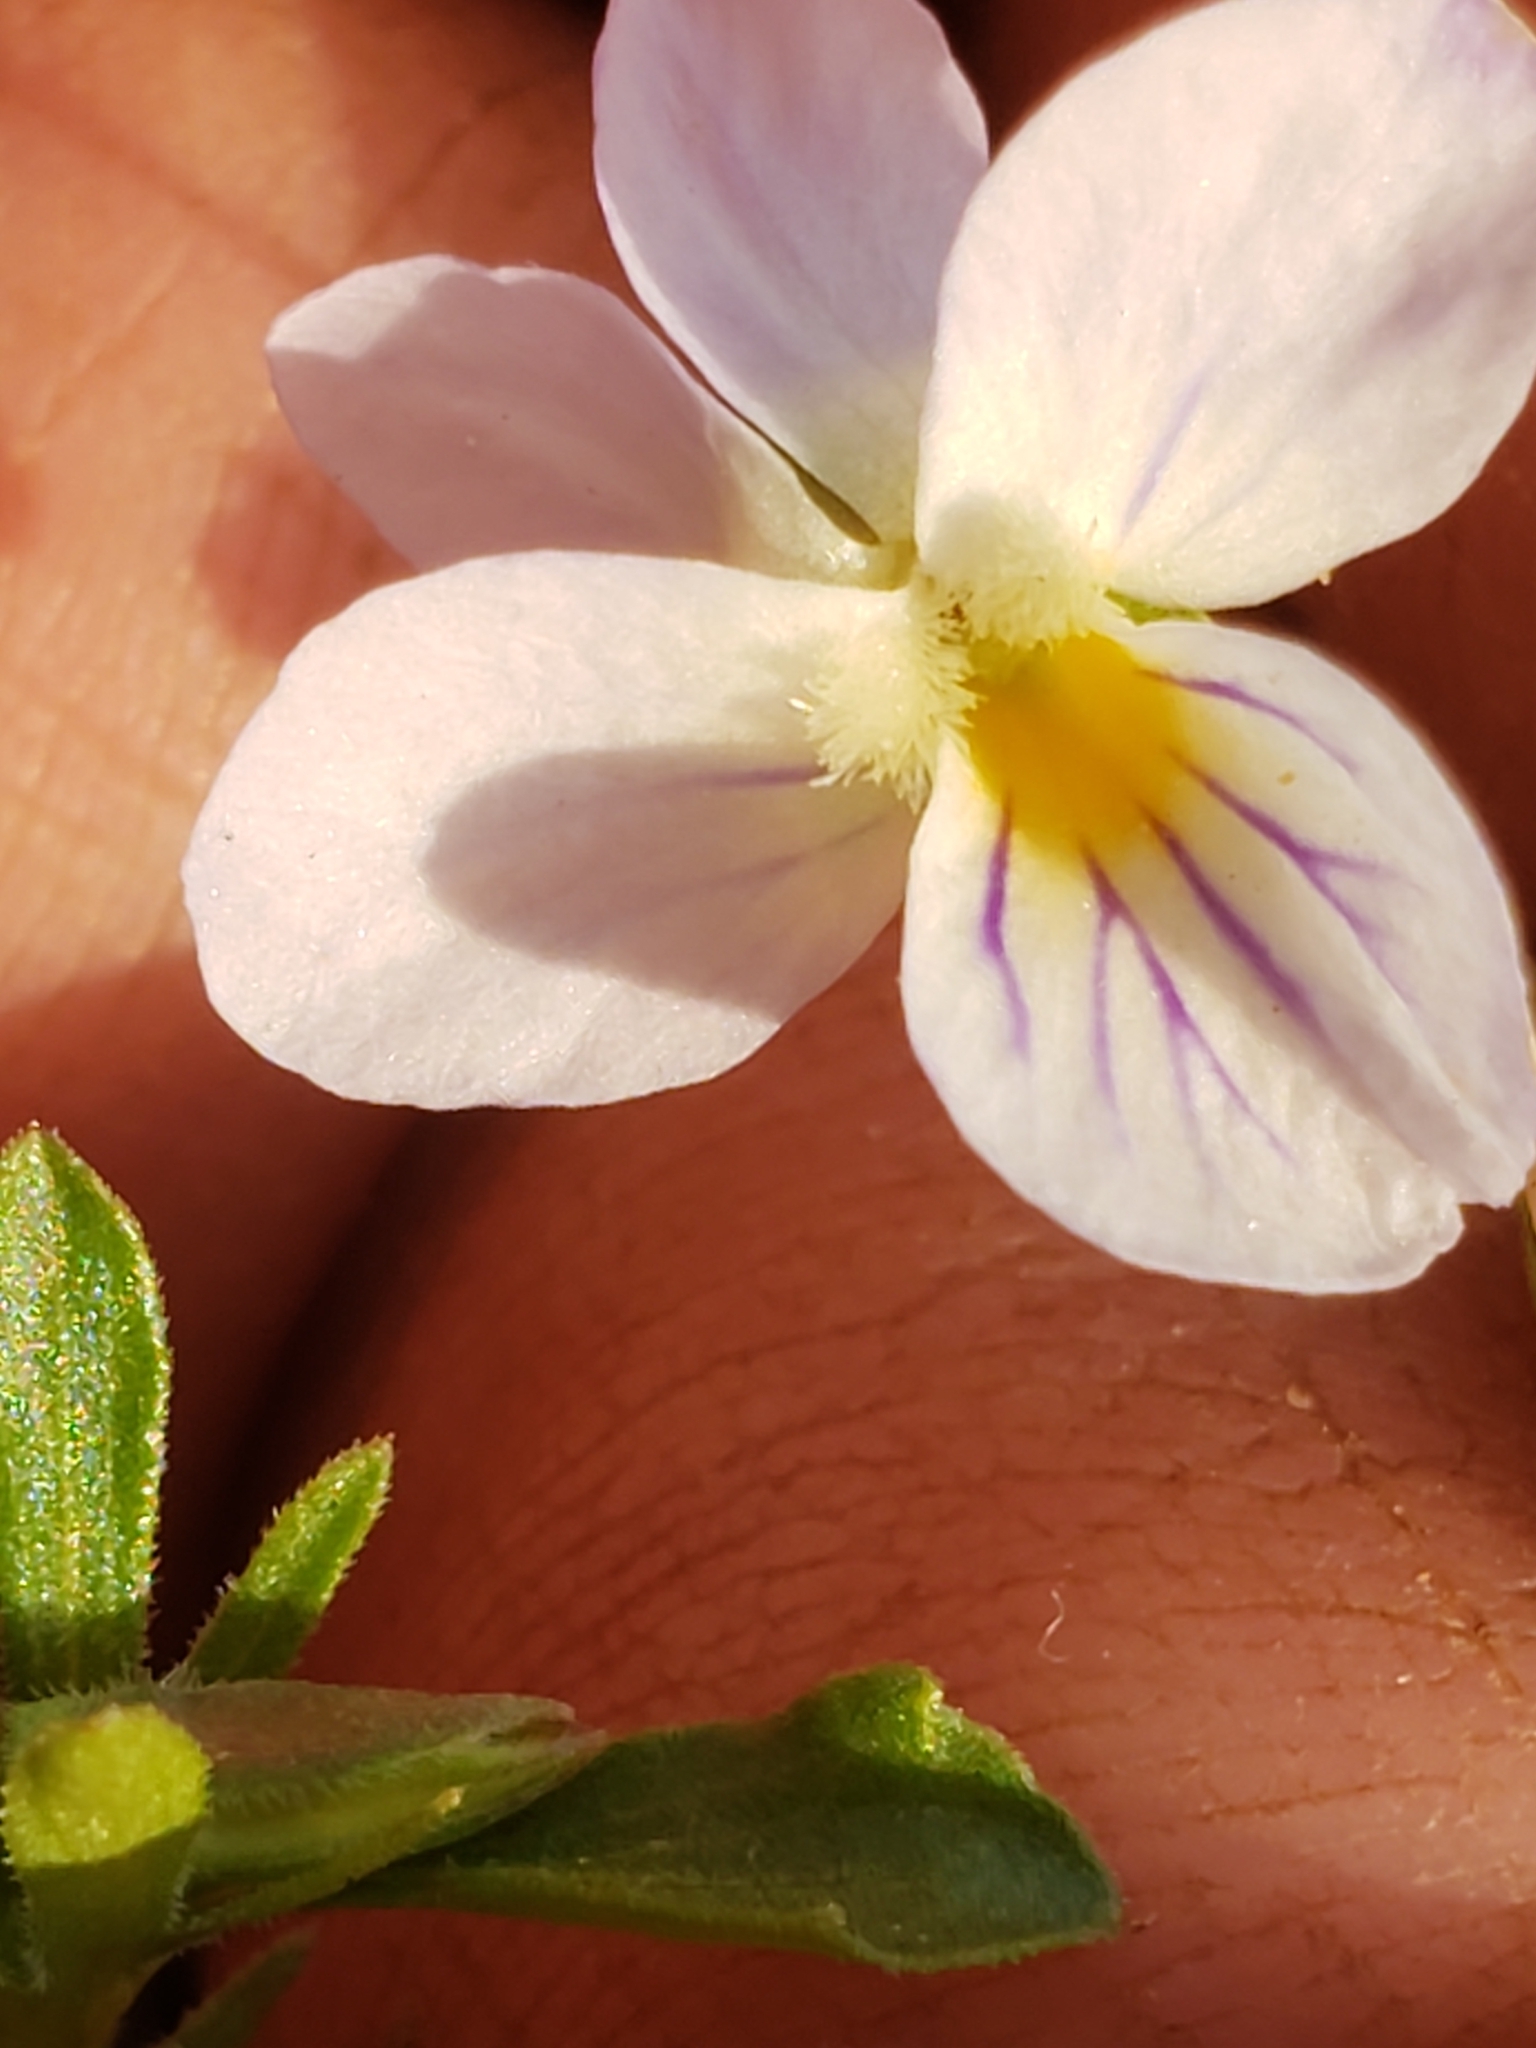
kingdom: Plantae
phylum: Tracheophyta
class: Magnoliopsida
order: Malpighiales
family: Violaceae
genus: Viola
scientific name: Viola rafinesquei
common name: American field pansy
